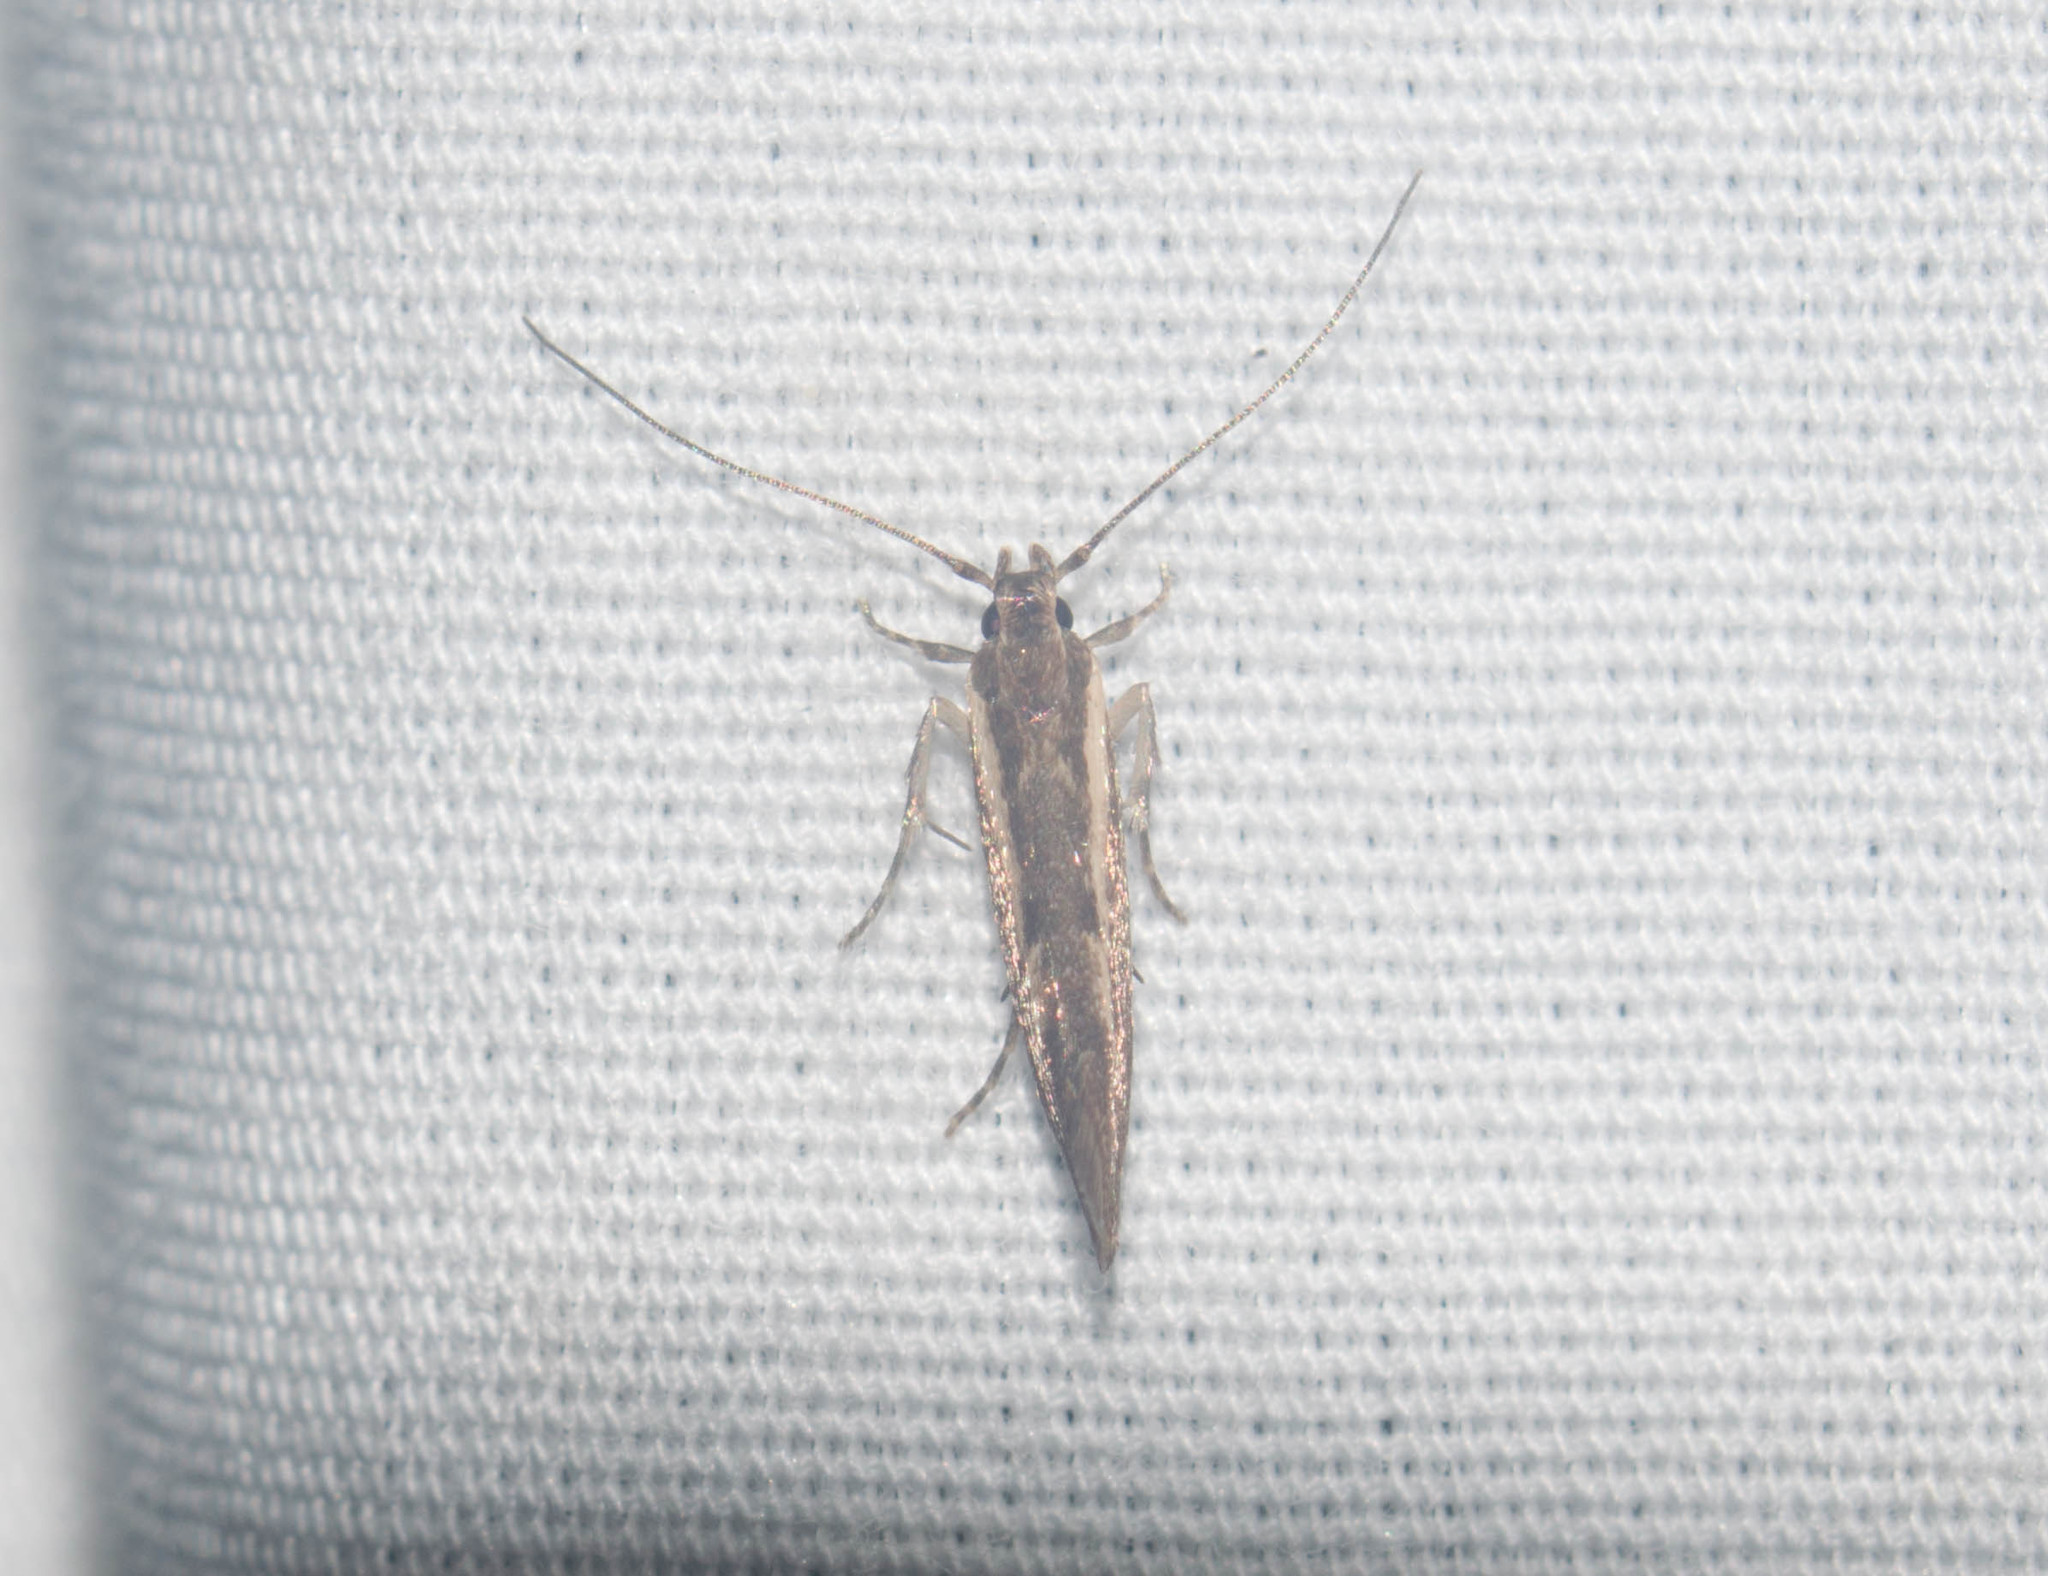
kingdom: Animalia
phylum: Arthropoda
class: Insecta
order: Lepidoptera
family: Cosmopterigidae
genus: Hyposmochoma
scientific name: Hyposmochoma mesorectis
